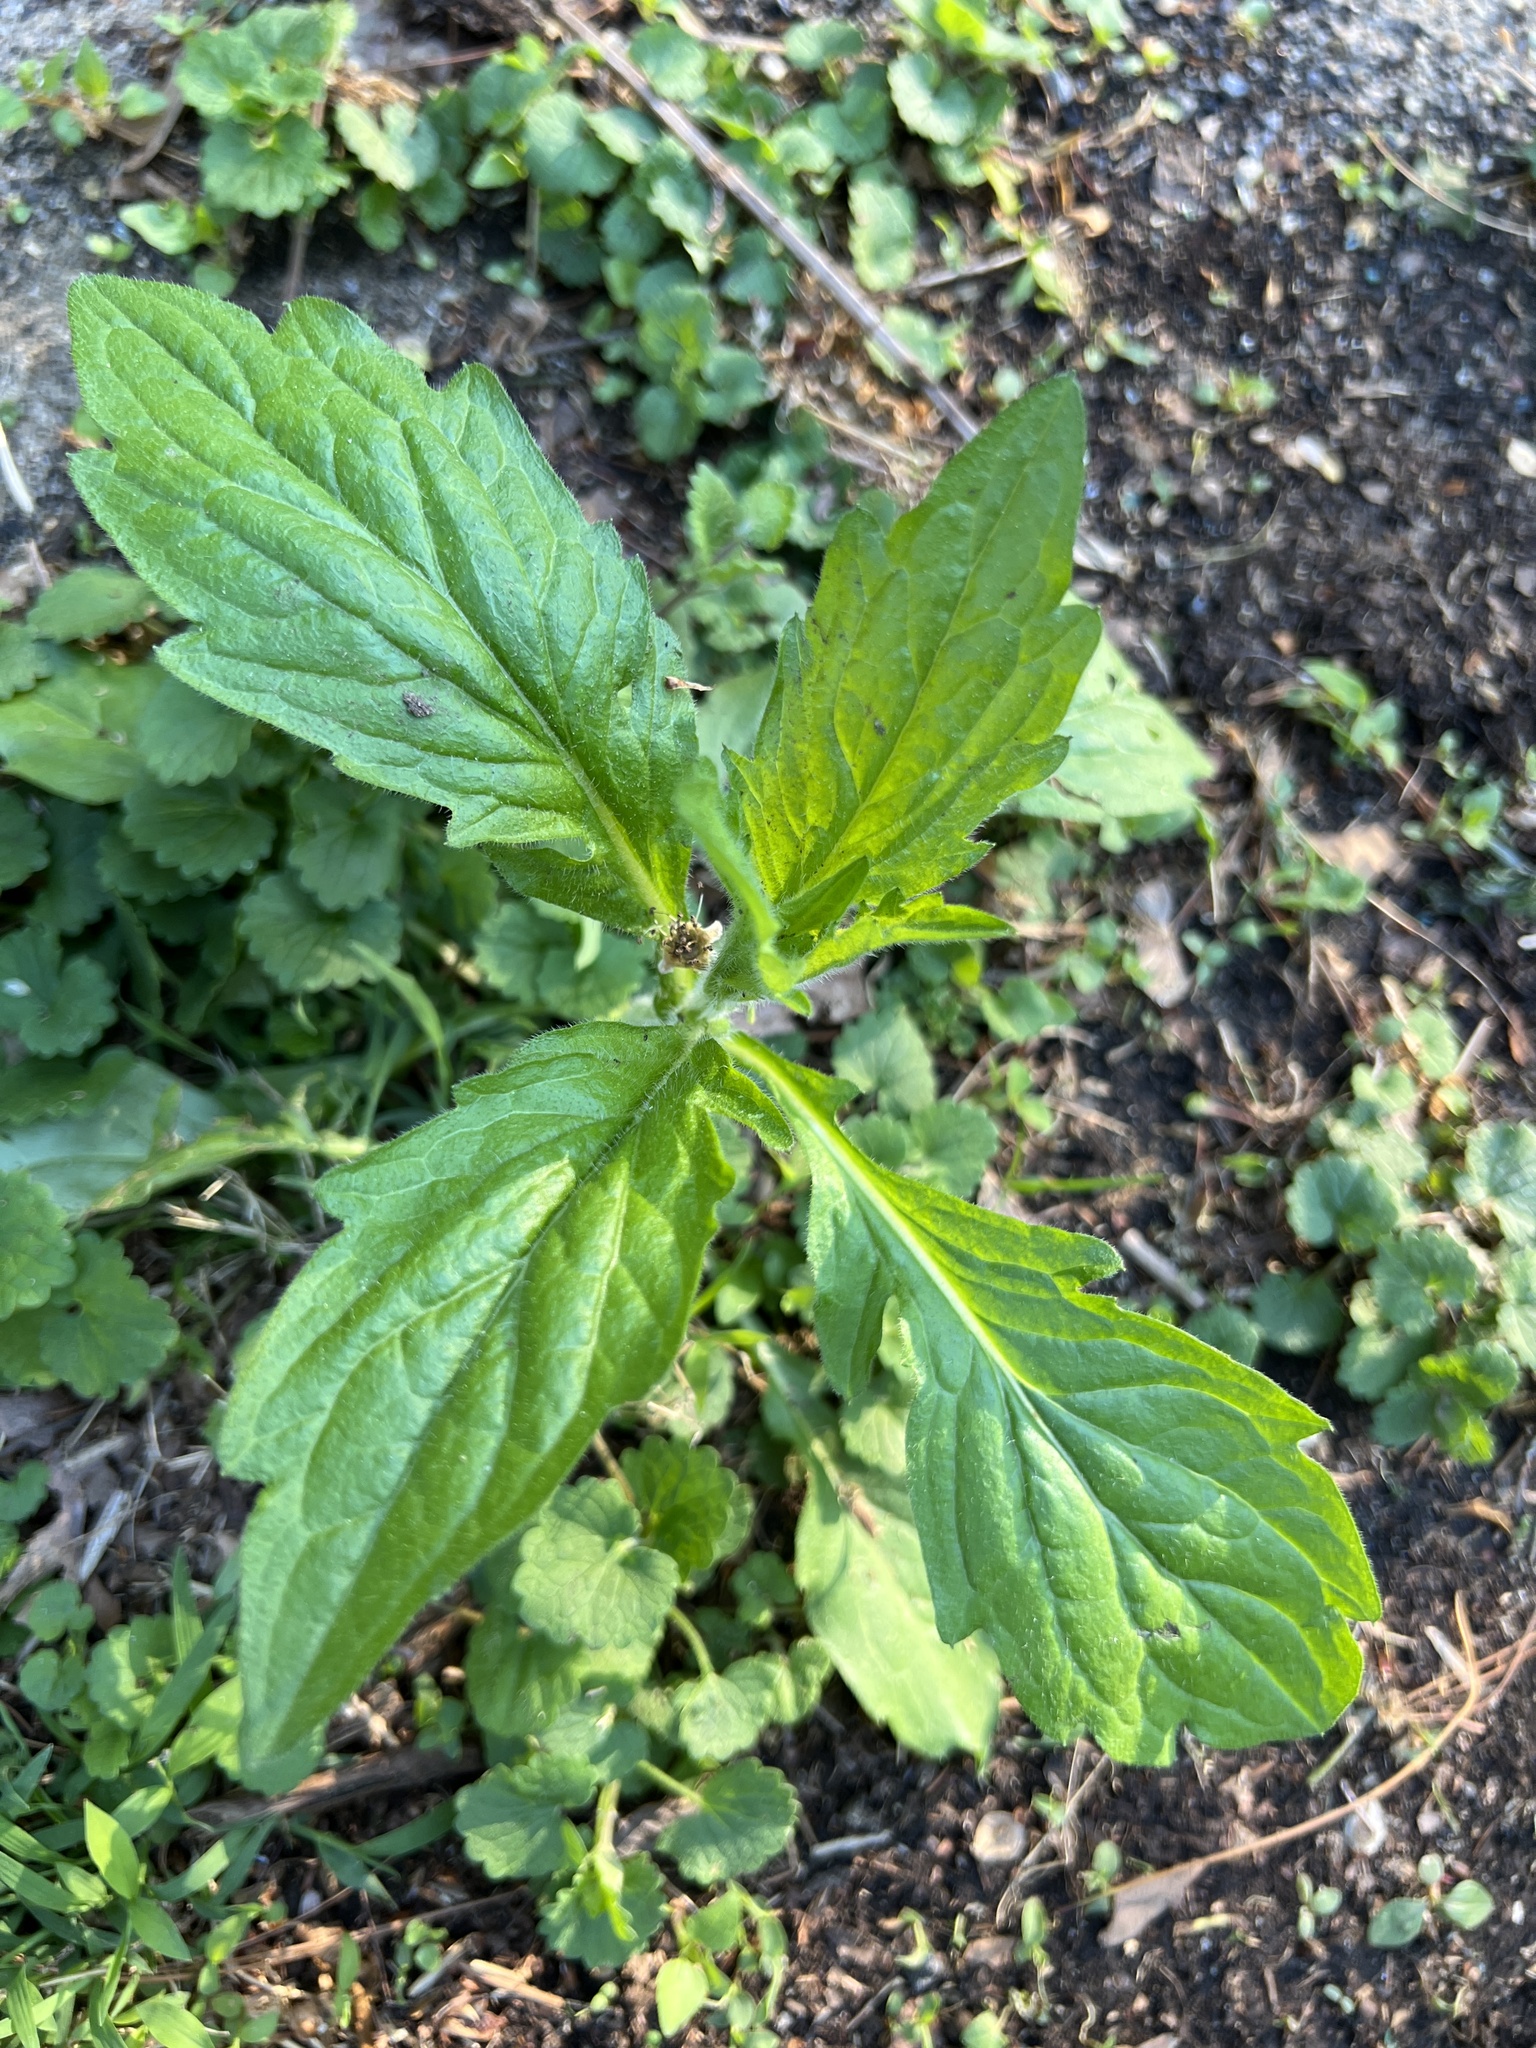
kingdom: Plantae
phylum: Tracheophyta
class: Magnoliopsida
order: Asterales
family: Asteraceae
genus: Erigeron
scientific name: Erigeron annuus
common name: Tall fleabane
